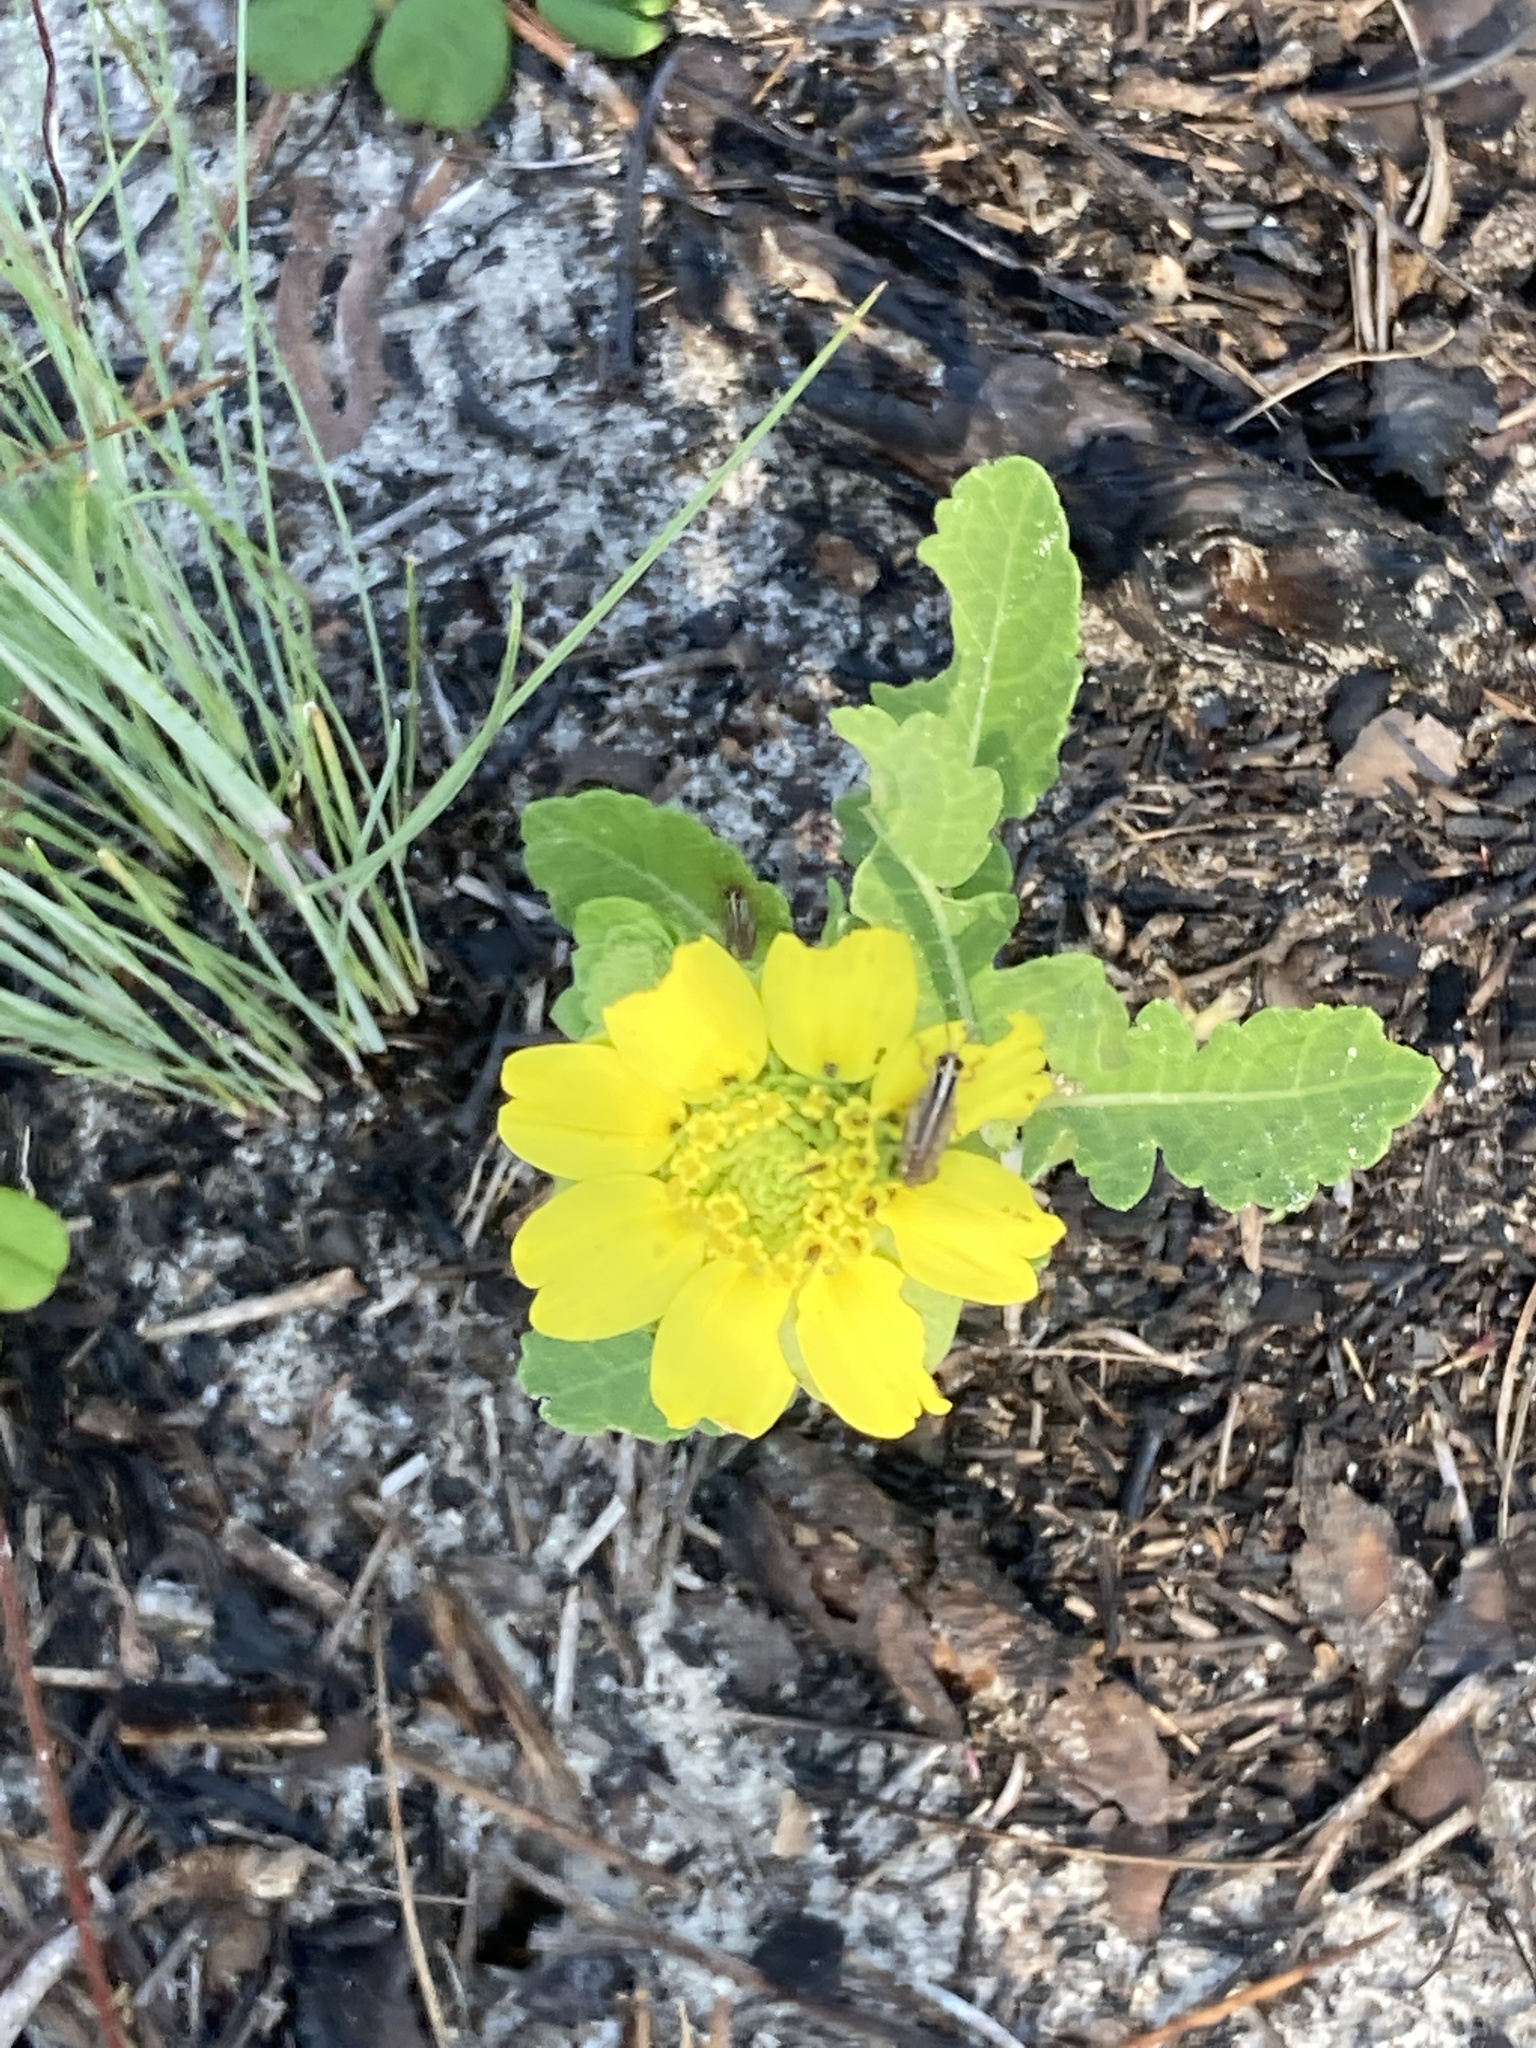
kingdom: Plantae
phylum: Tracheophyta
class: Magnoliopsida
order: Asterales
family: Asteraceae
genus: Berlandiera
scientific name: Berlandiera subacaulis
